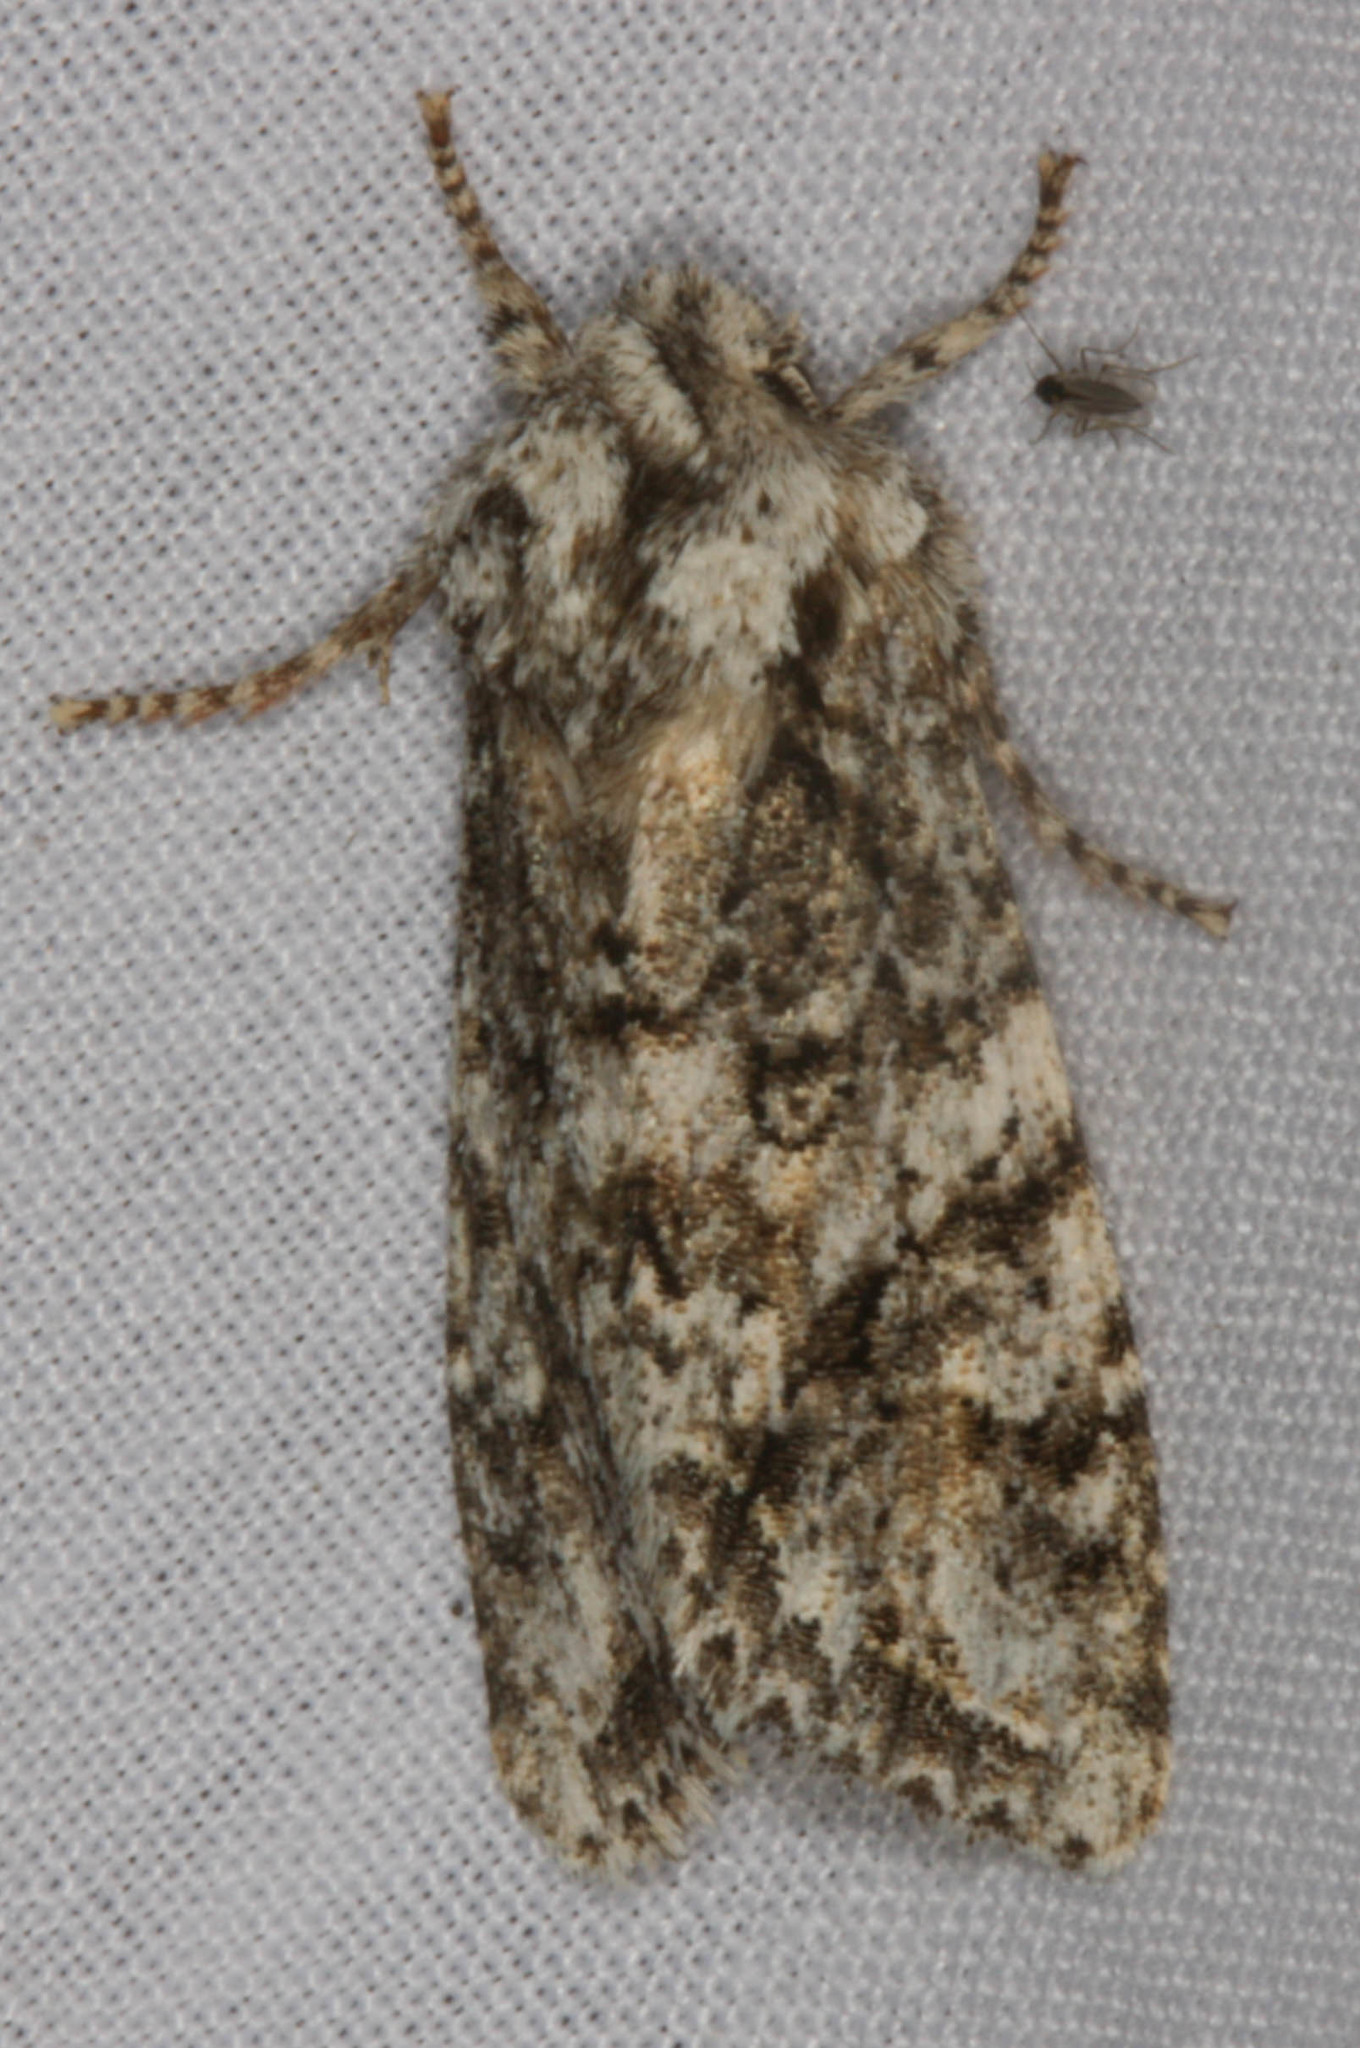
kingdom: Animalia
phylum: Arthropoda
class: Insecta
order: Lepidoptera
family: Noctuidae
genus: Egira
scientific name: Egira cognata
